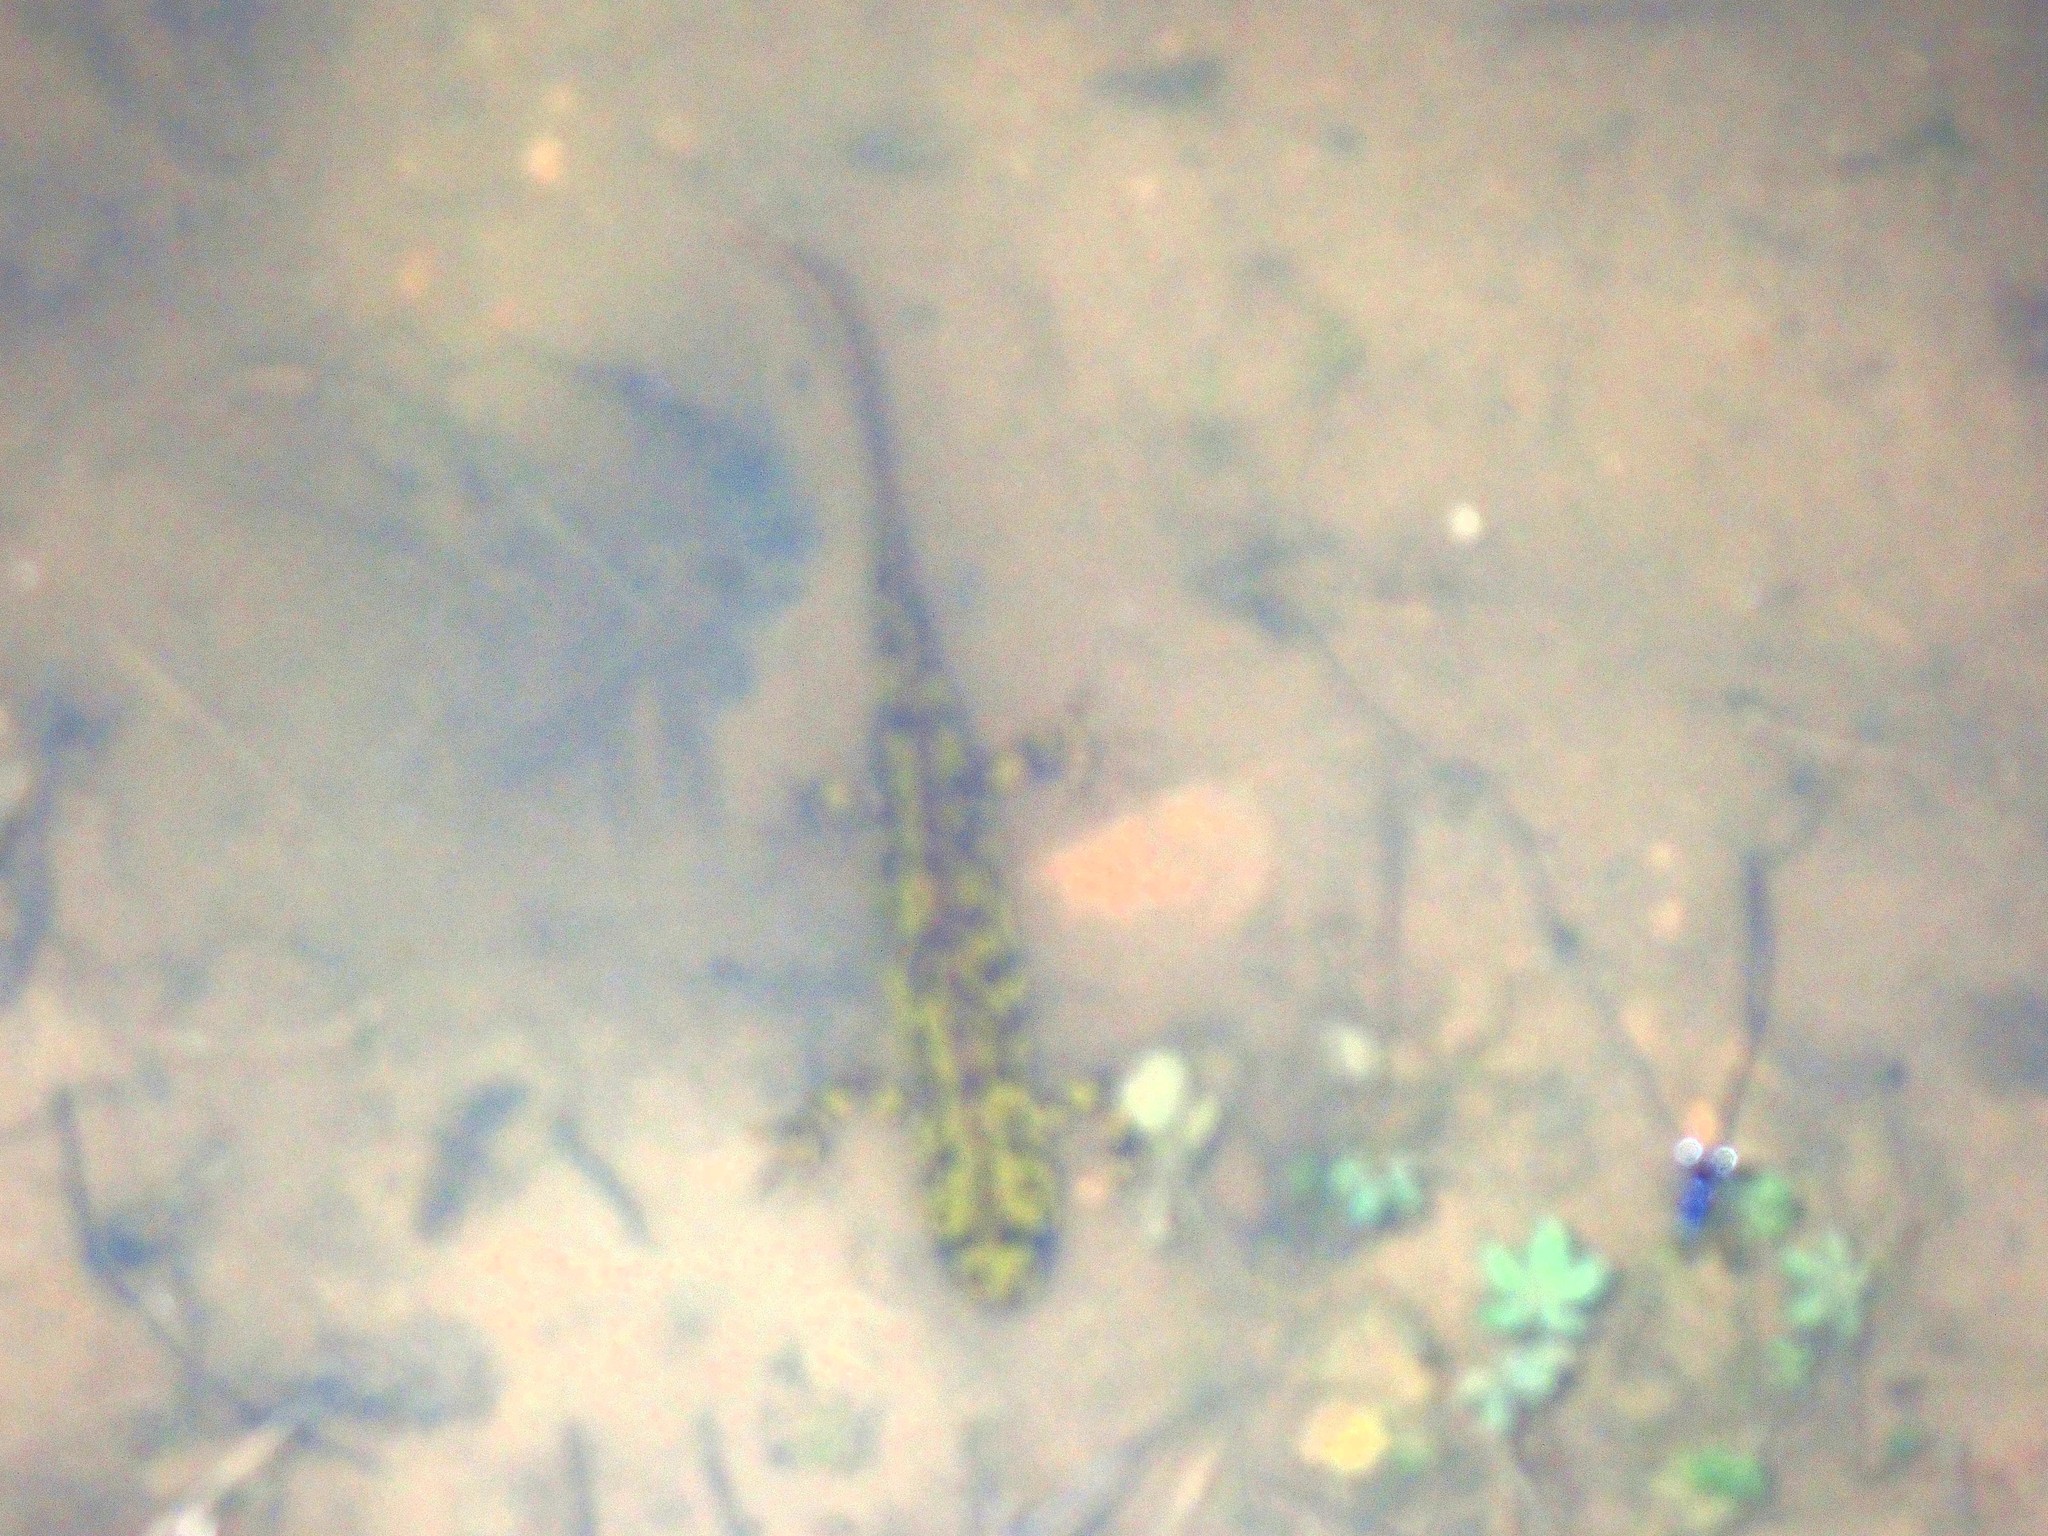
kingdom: Animalia
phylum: Chordata
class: Amphibia
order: Caudata
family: Salamandridae
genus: Triturus
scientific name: Triturus marmoratus
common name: Marbled newt
